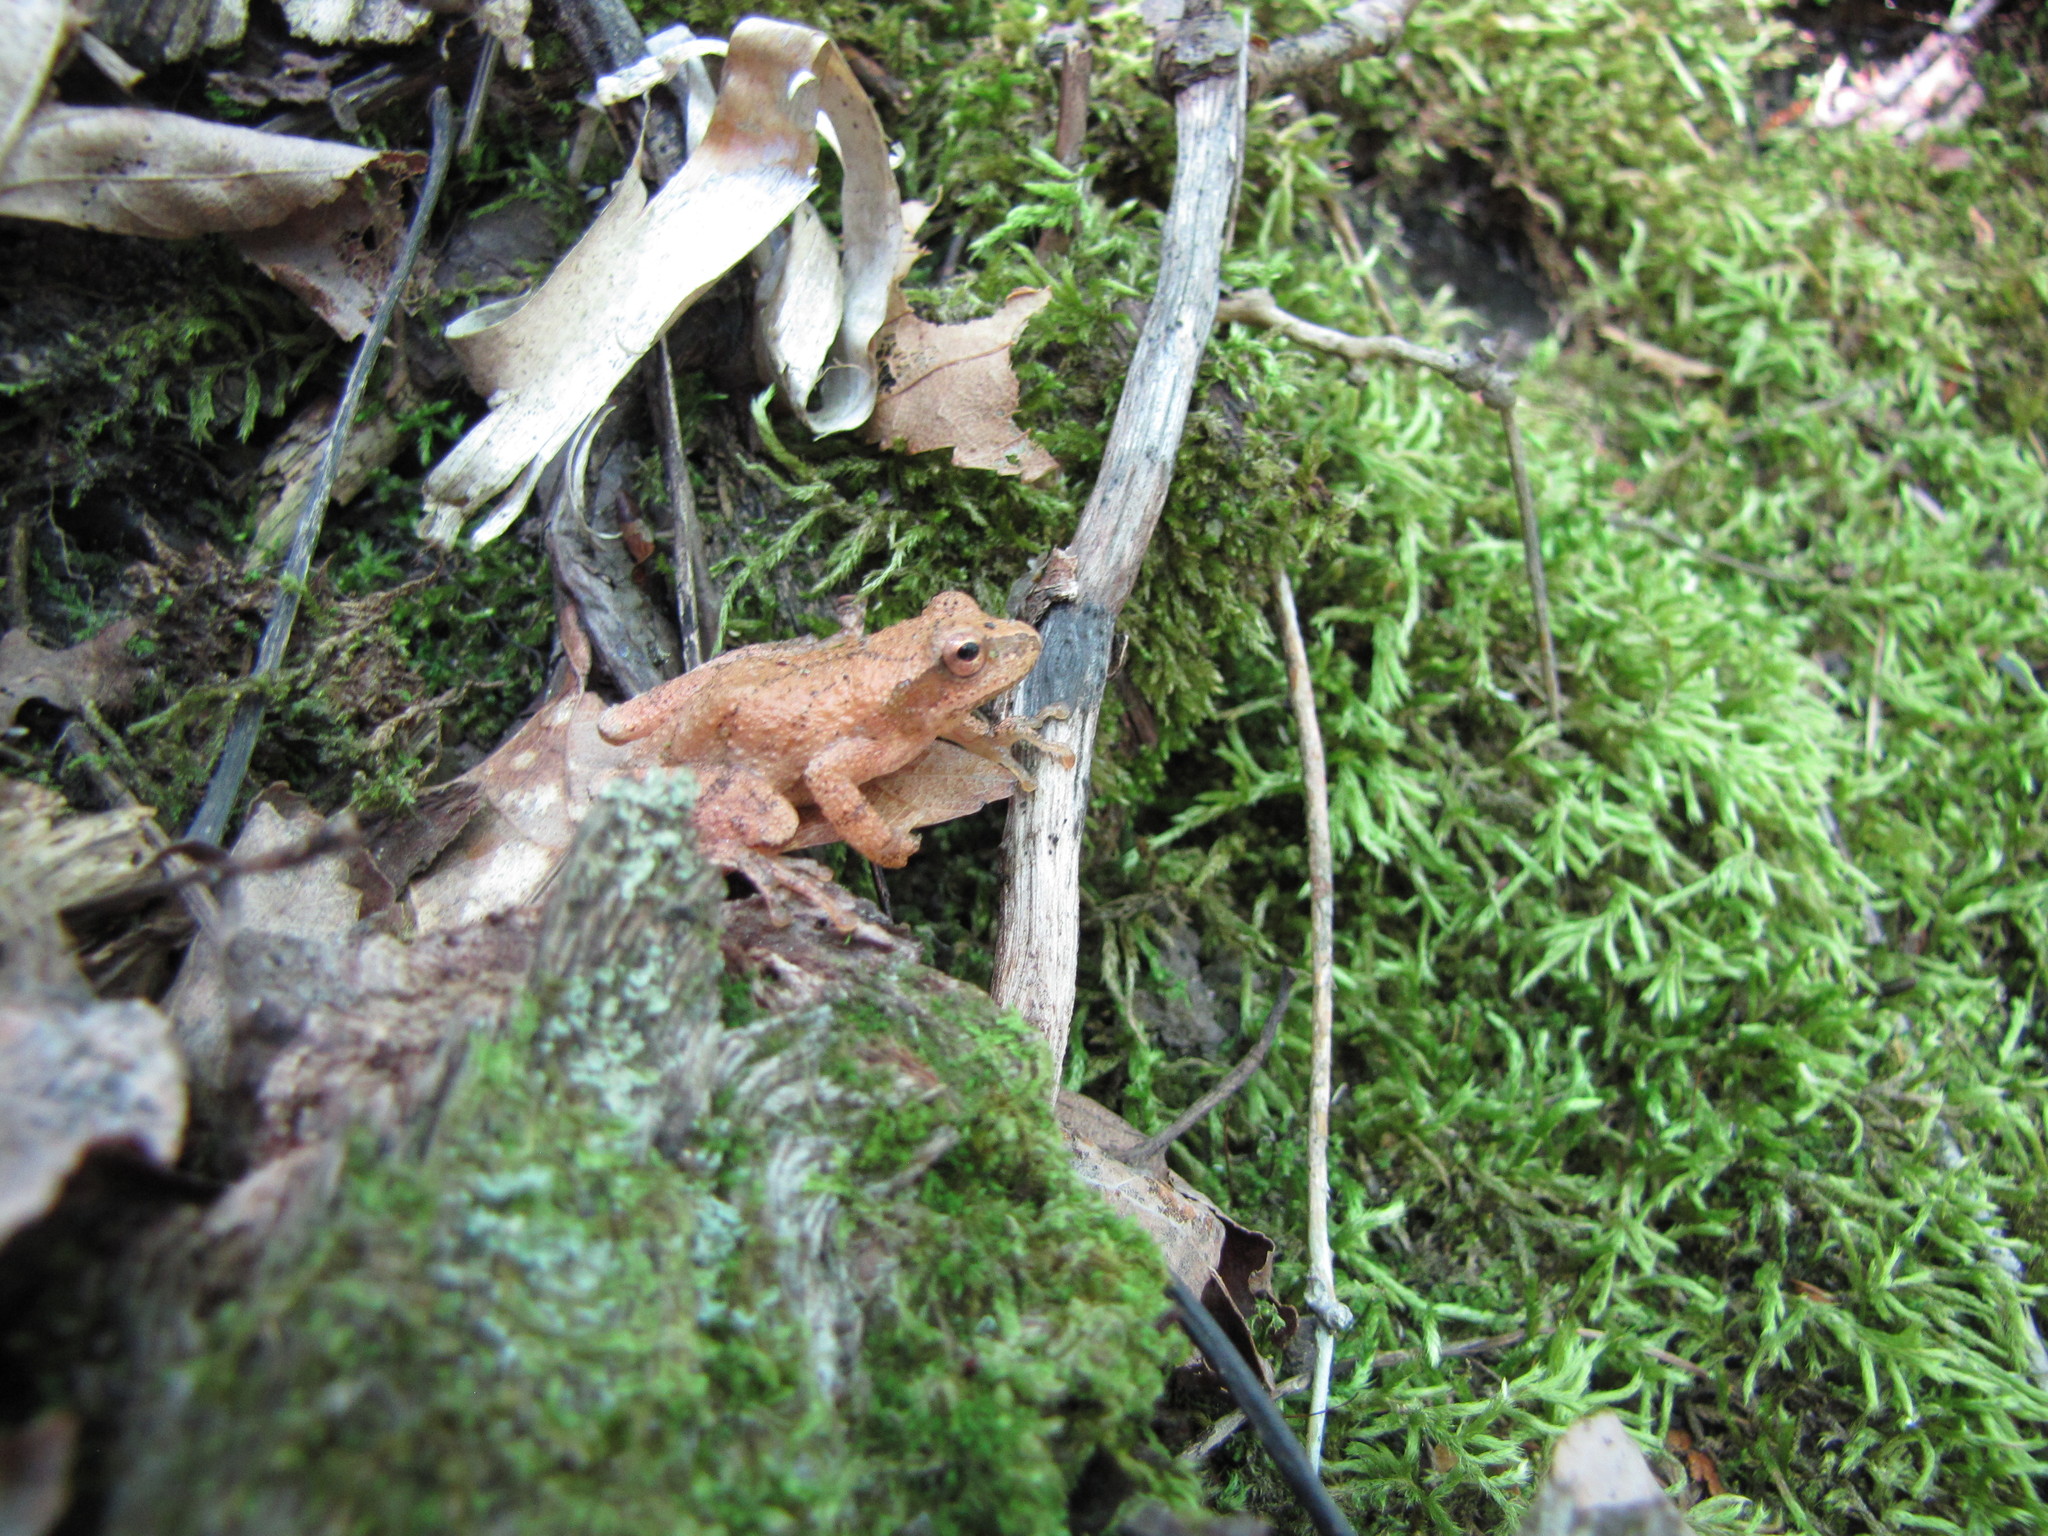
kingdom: Animalia
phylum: Chordata
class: Amphibia
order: Anura
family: Hylidae
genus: Pseudacris
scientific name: Pseudacris crucifer
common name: Spring peeper
